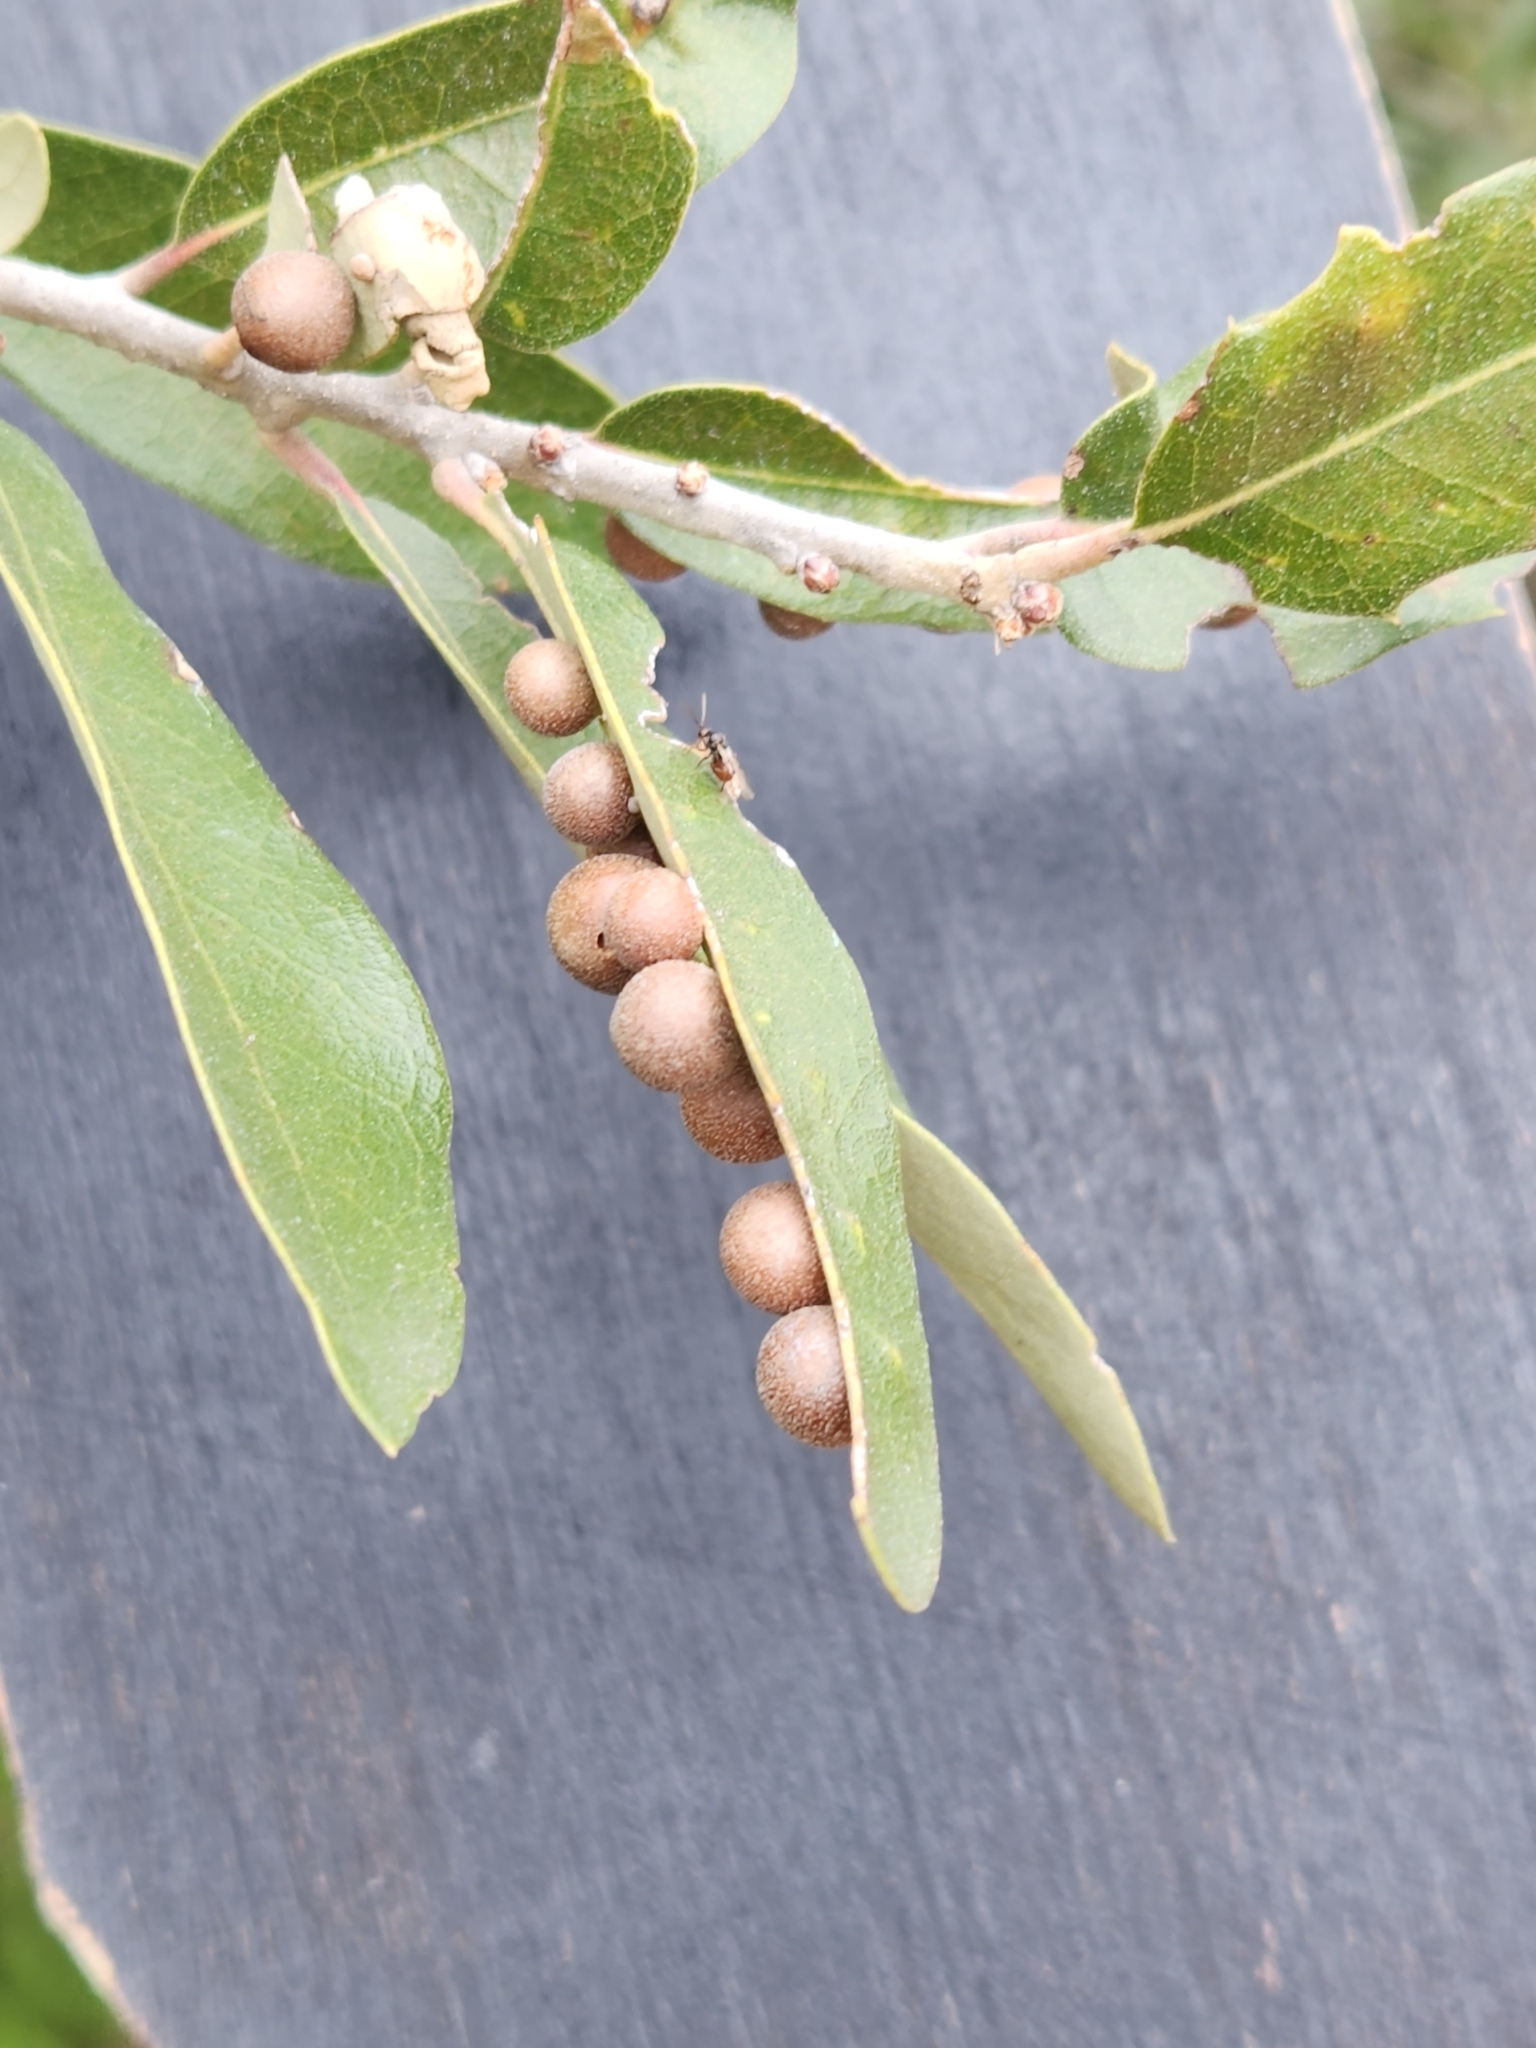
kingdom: Animalia
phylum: Arthropoda
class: Insecta
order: Hymenoptera
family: Cynipidae
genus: Belonocnema
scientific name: Belonocnema kinseyi
